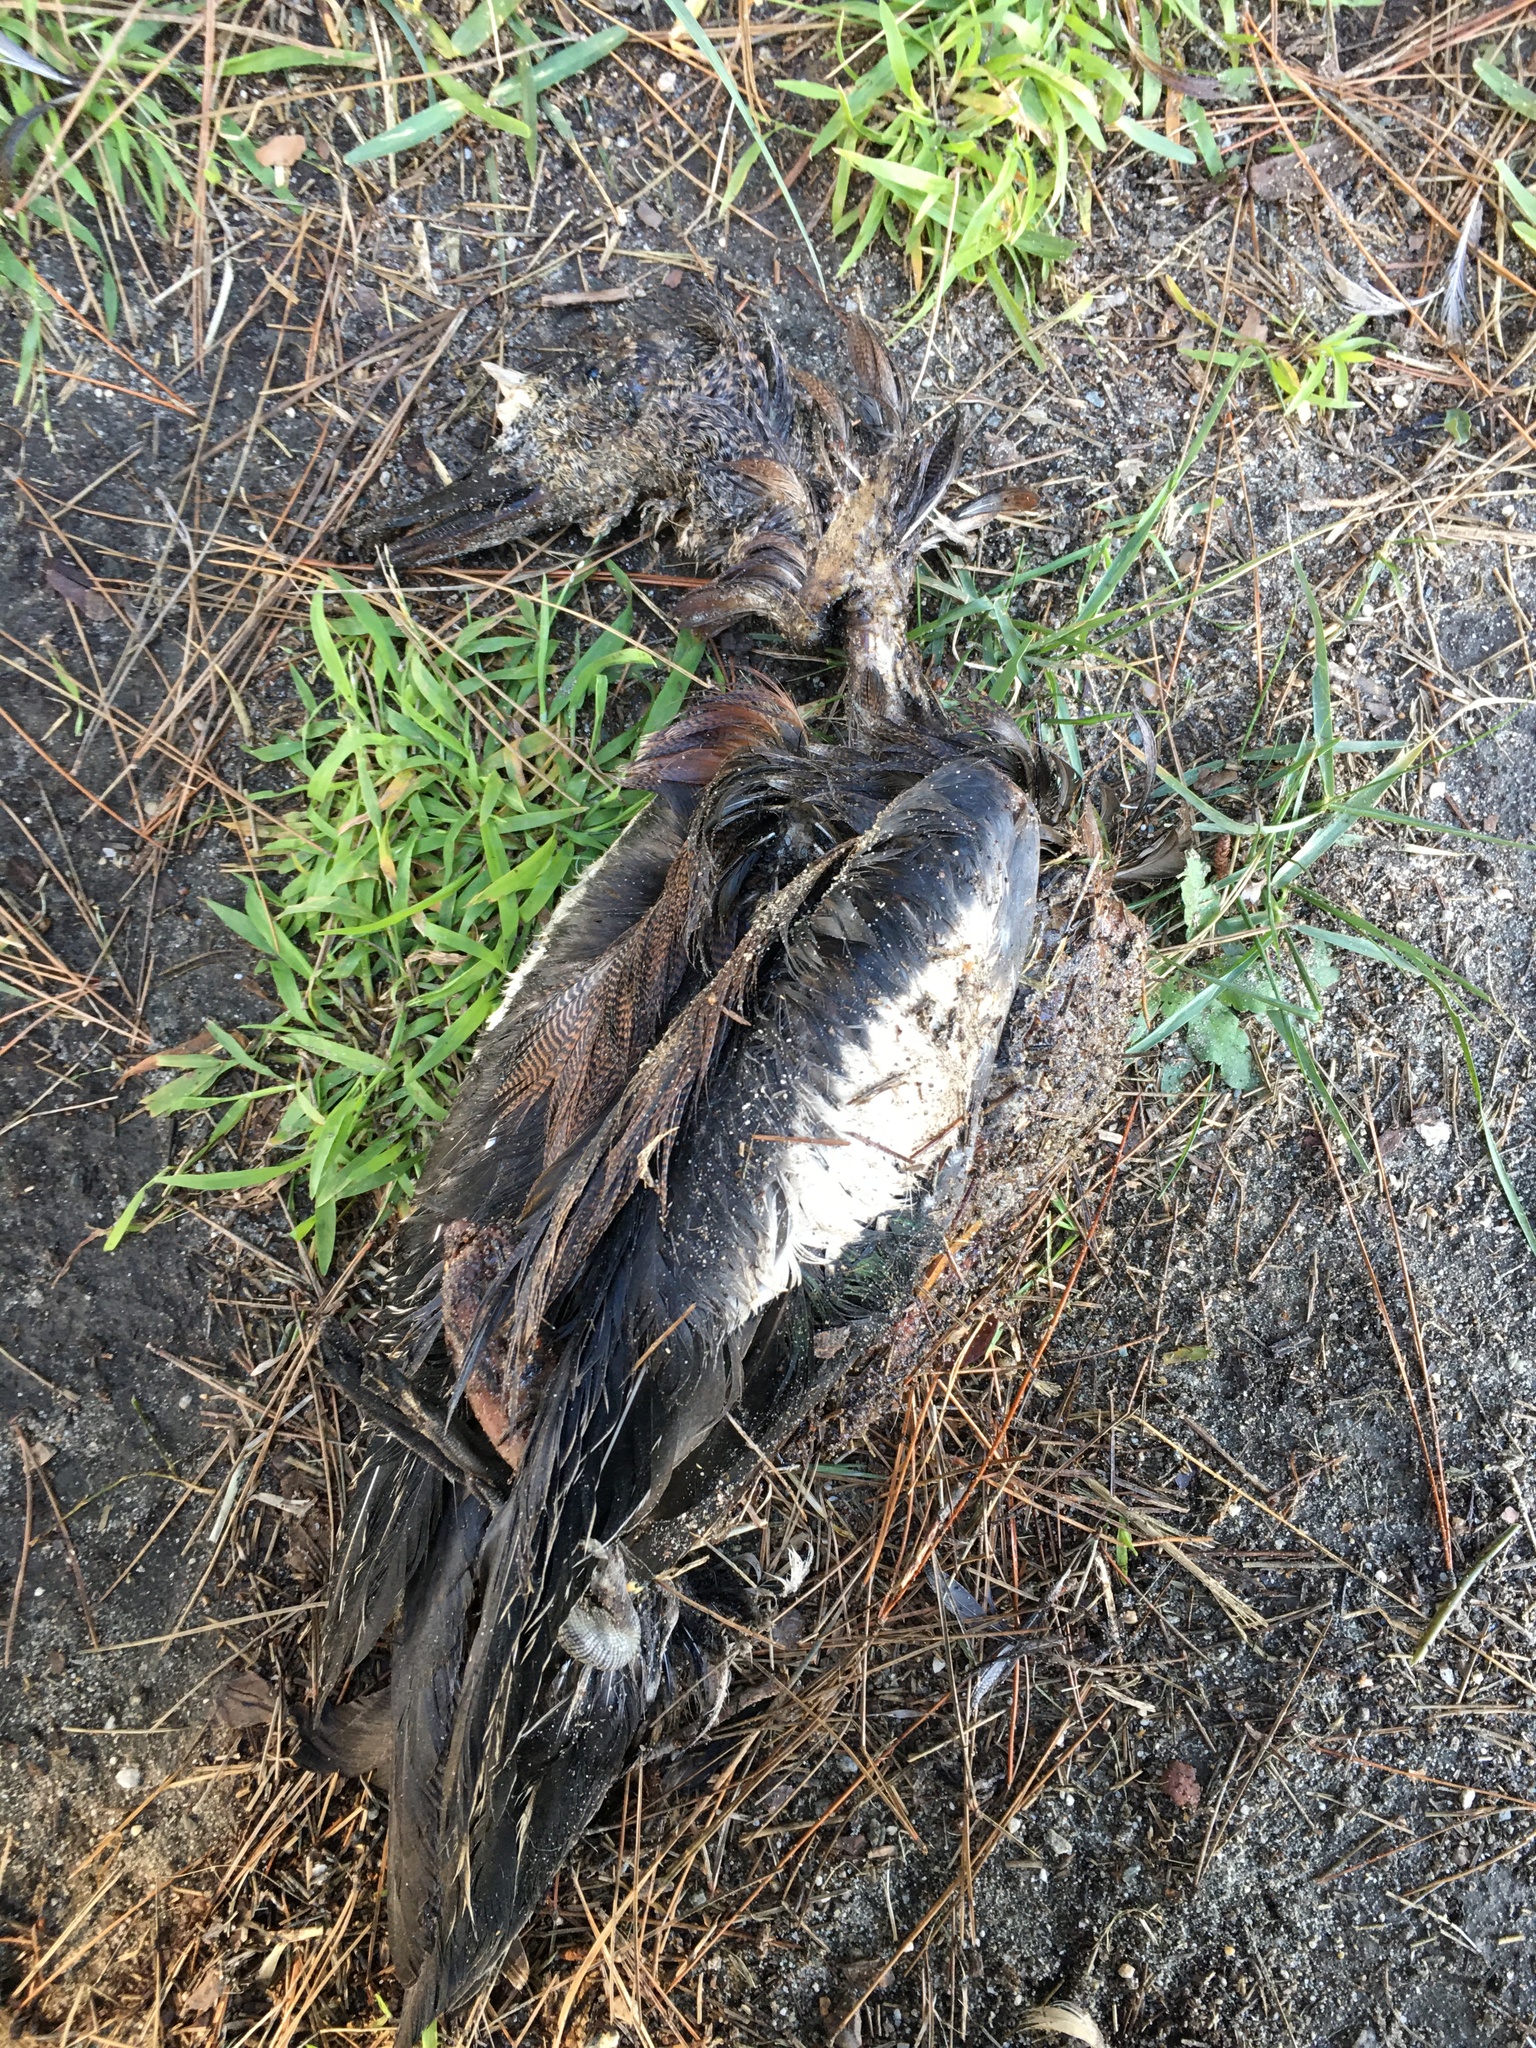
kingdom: Animalia
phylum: Chordata
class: Aves
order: Anseriformes
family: Anatidae
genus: Mareca
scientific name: Mareca americana
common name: American wigeon
